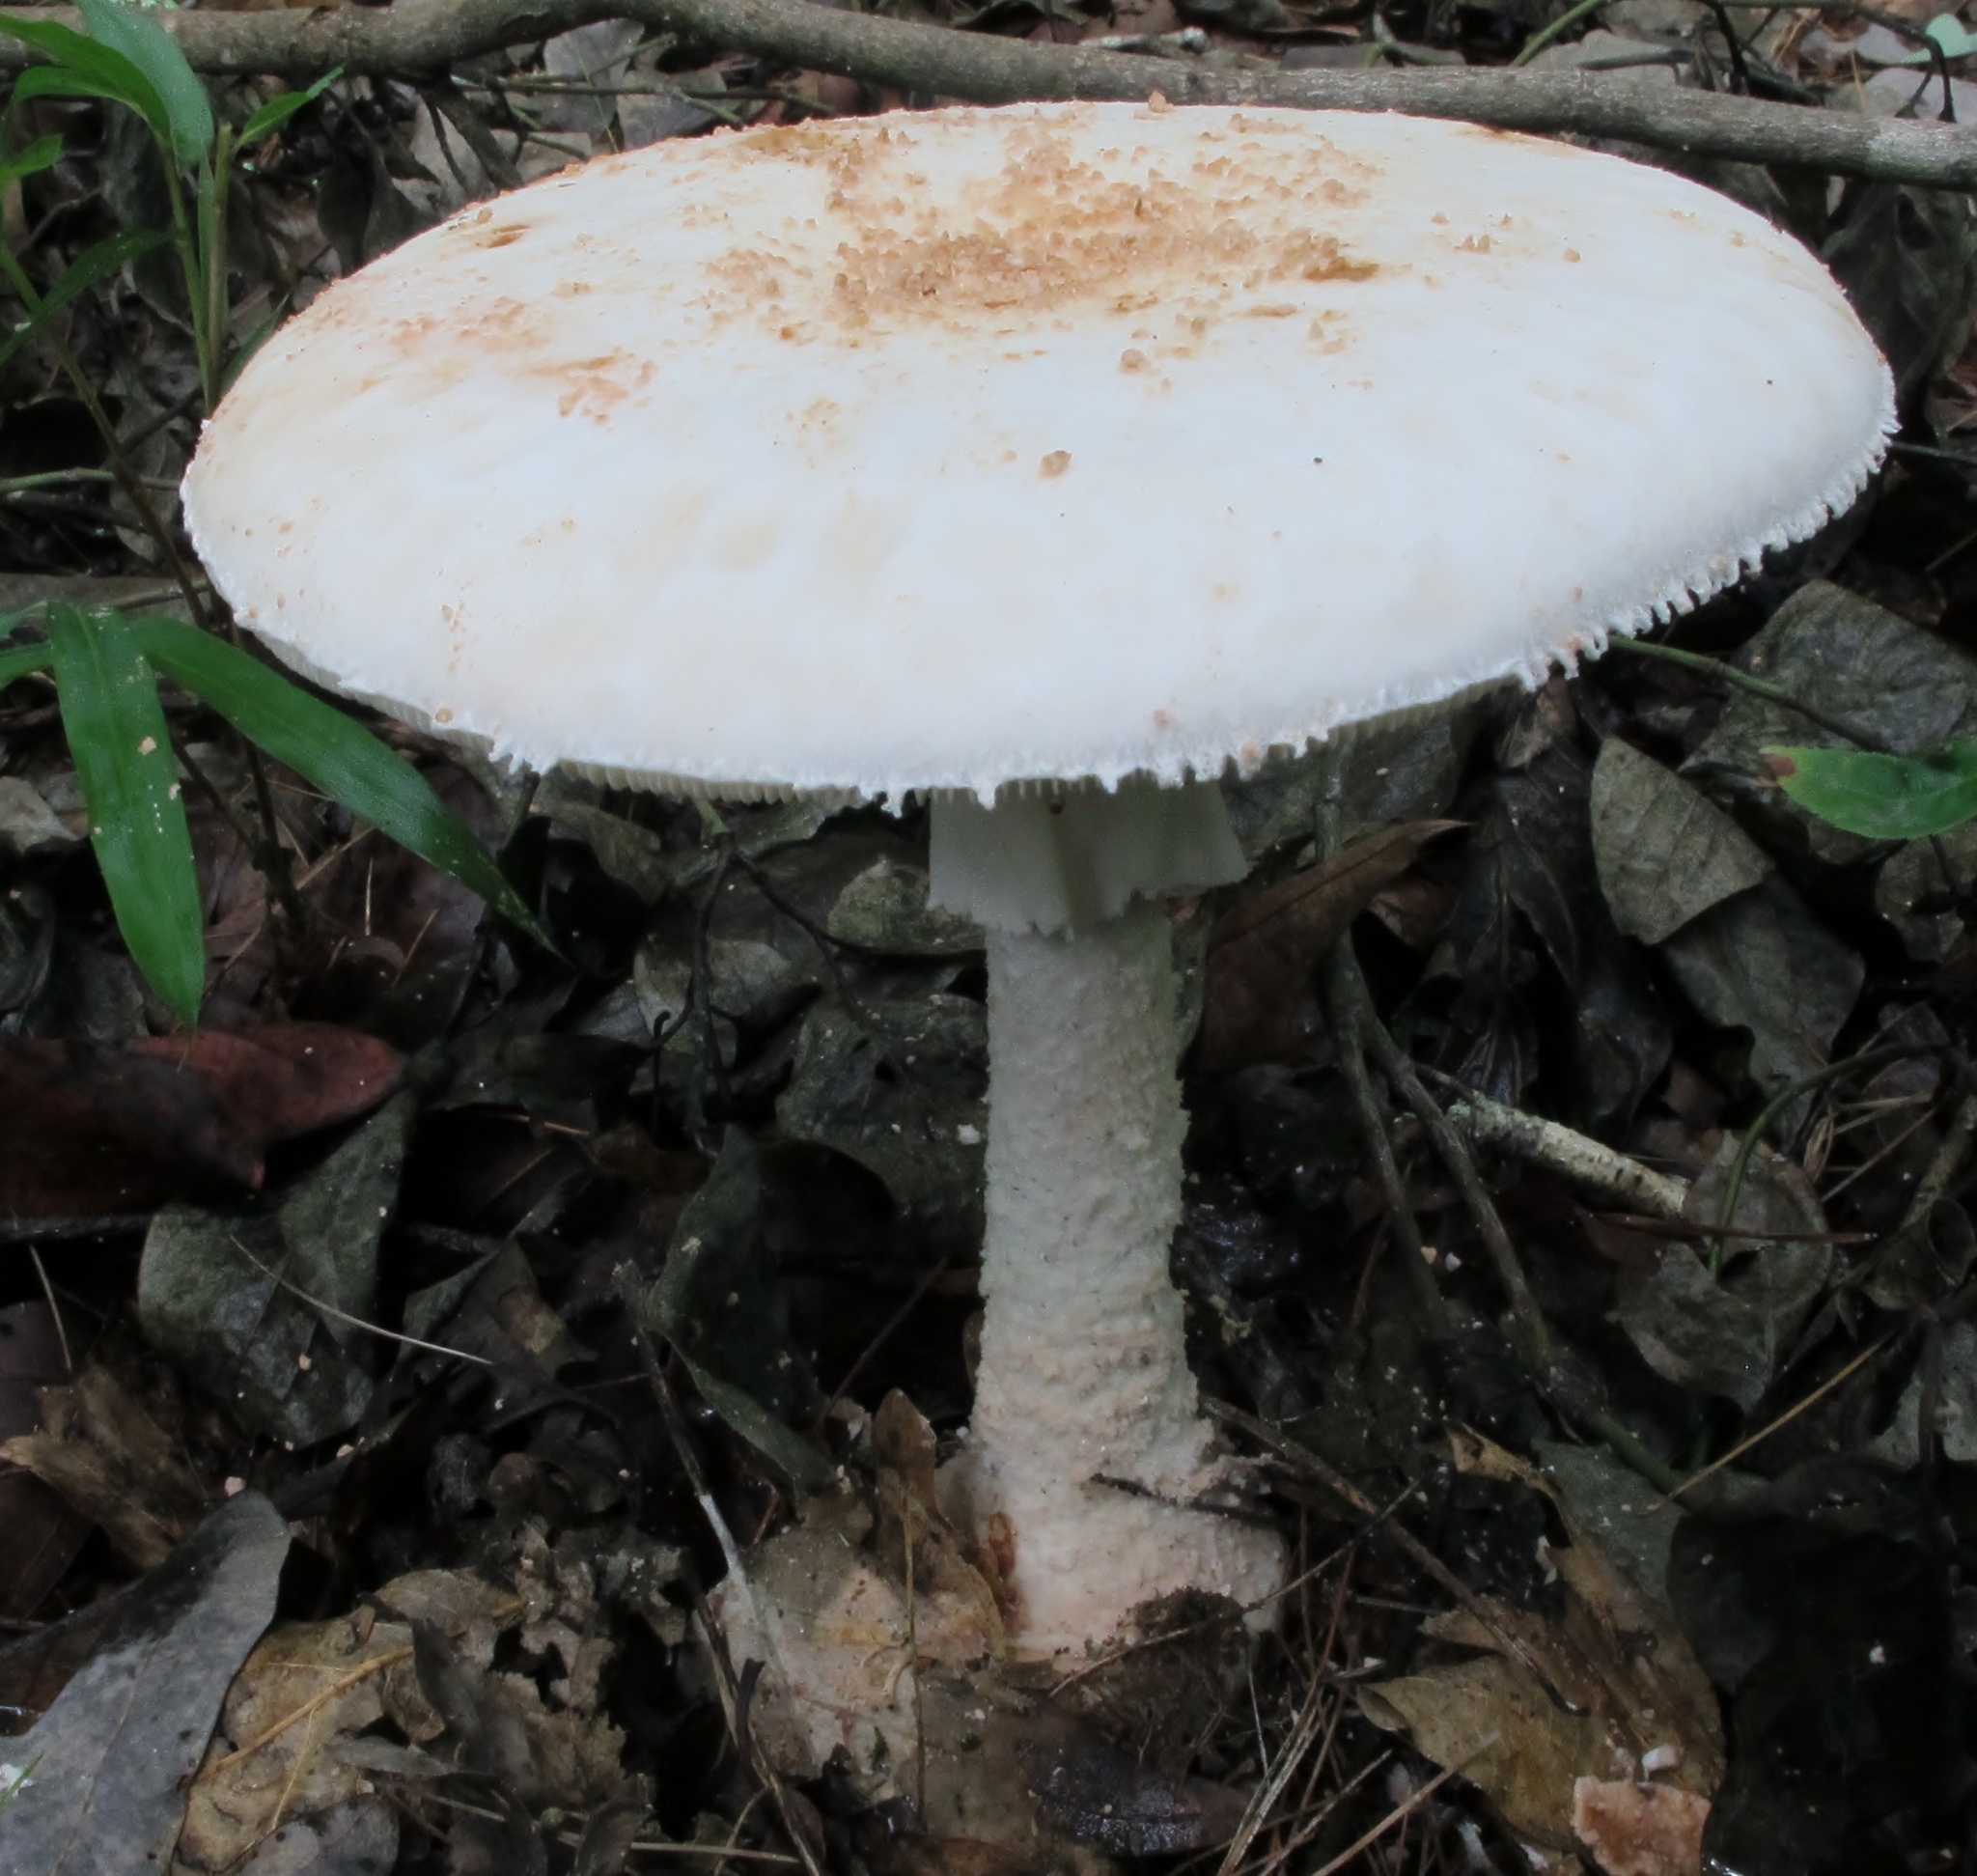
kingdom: Fungi
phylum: Basidiomycota
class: Agaricomycetes
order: Agaricales
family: Amanitaceae
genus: Amanita
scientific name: Amanita daucipes
